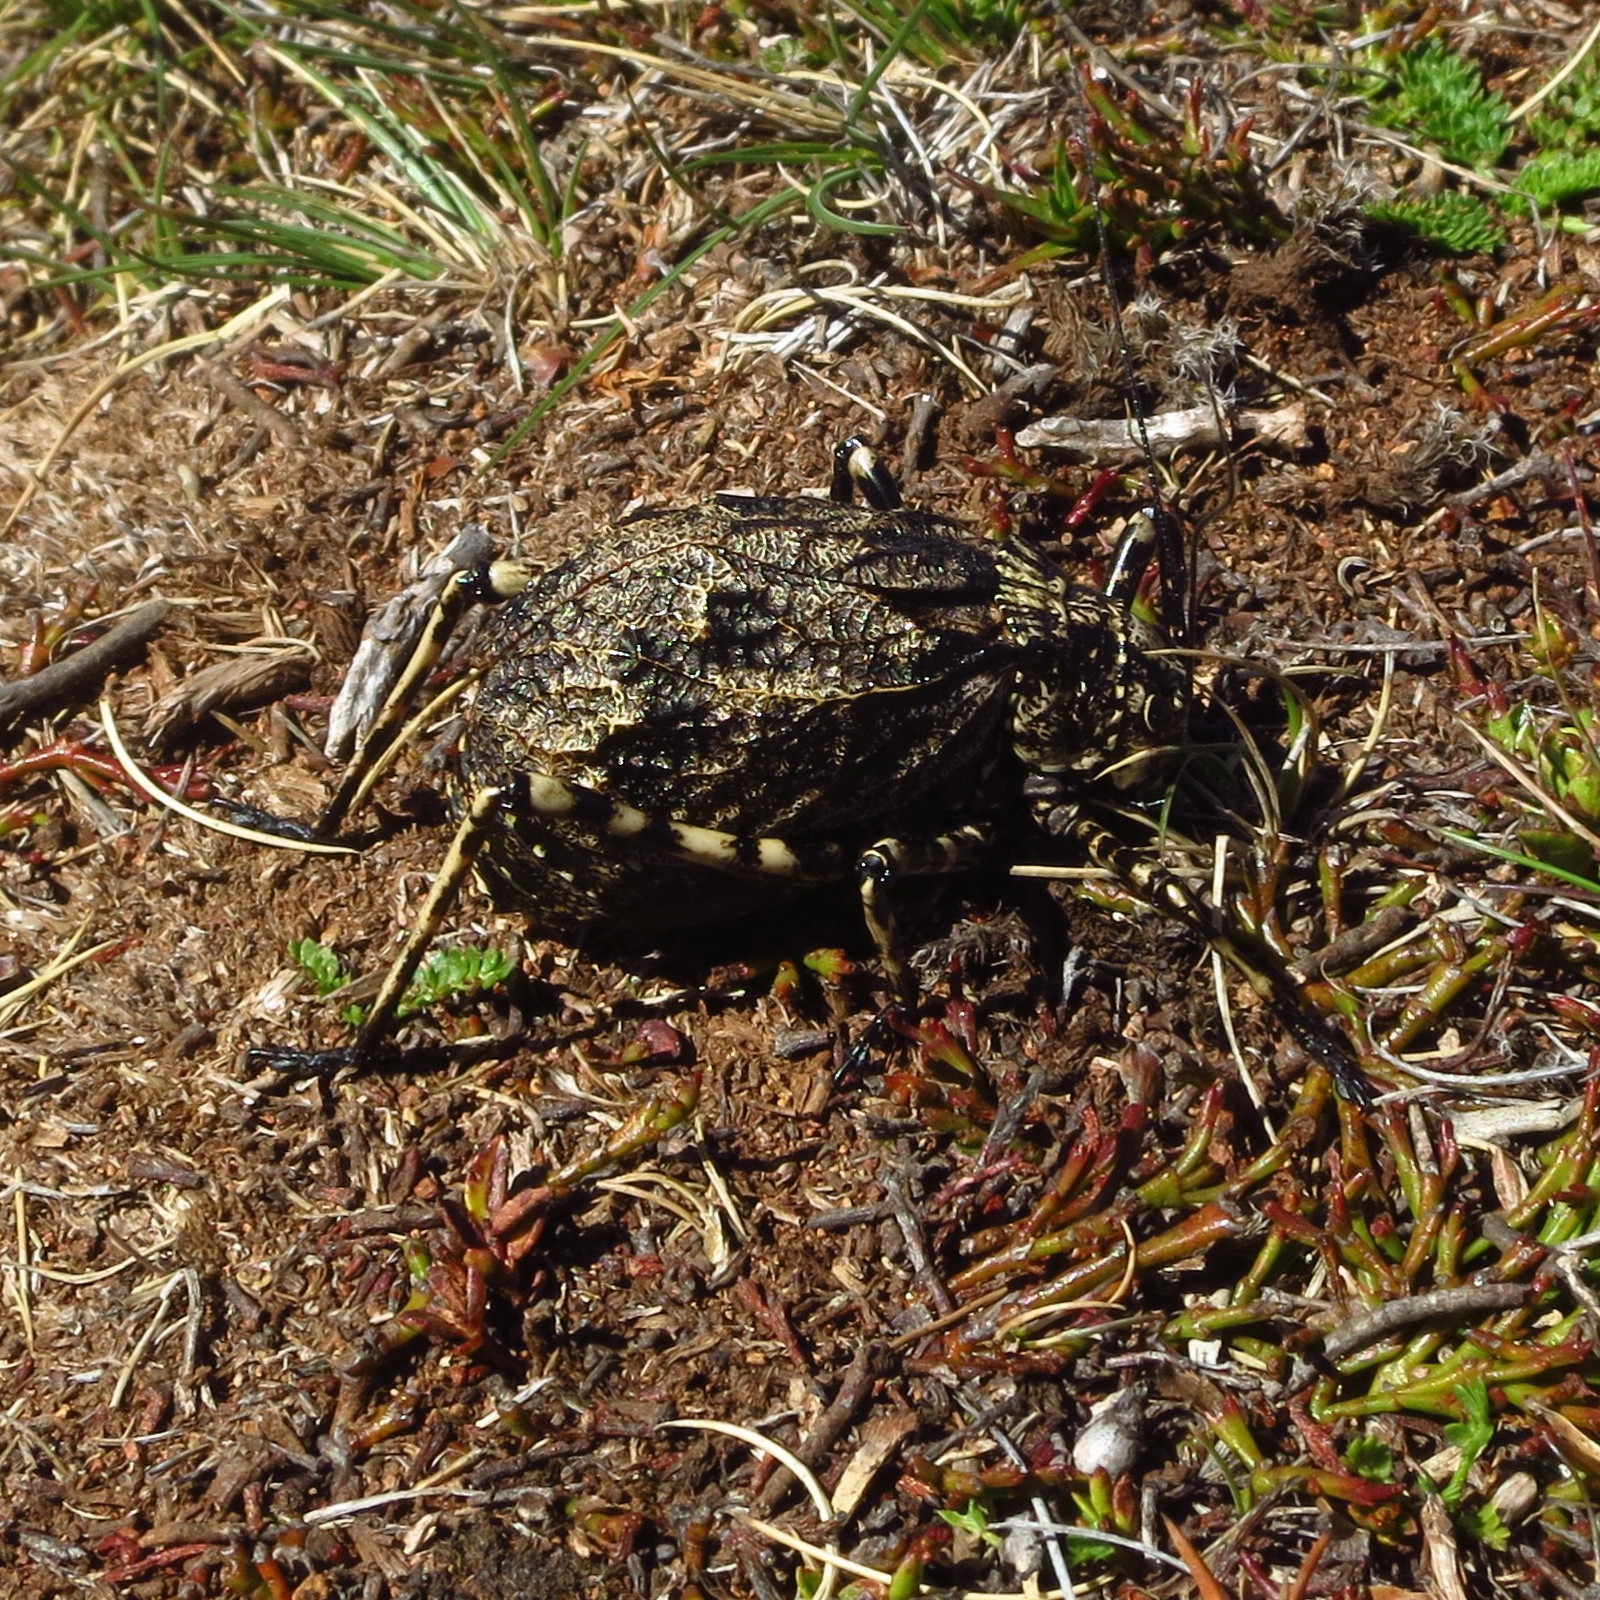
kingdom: Animalia
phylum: Arthropoda
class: Insecta
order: Orthoptera
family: Tettigoniidae
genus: Acripeza
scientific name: Acripeza reticulata
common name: Mountain katydid
